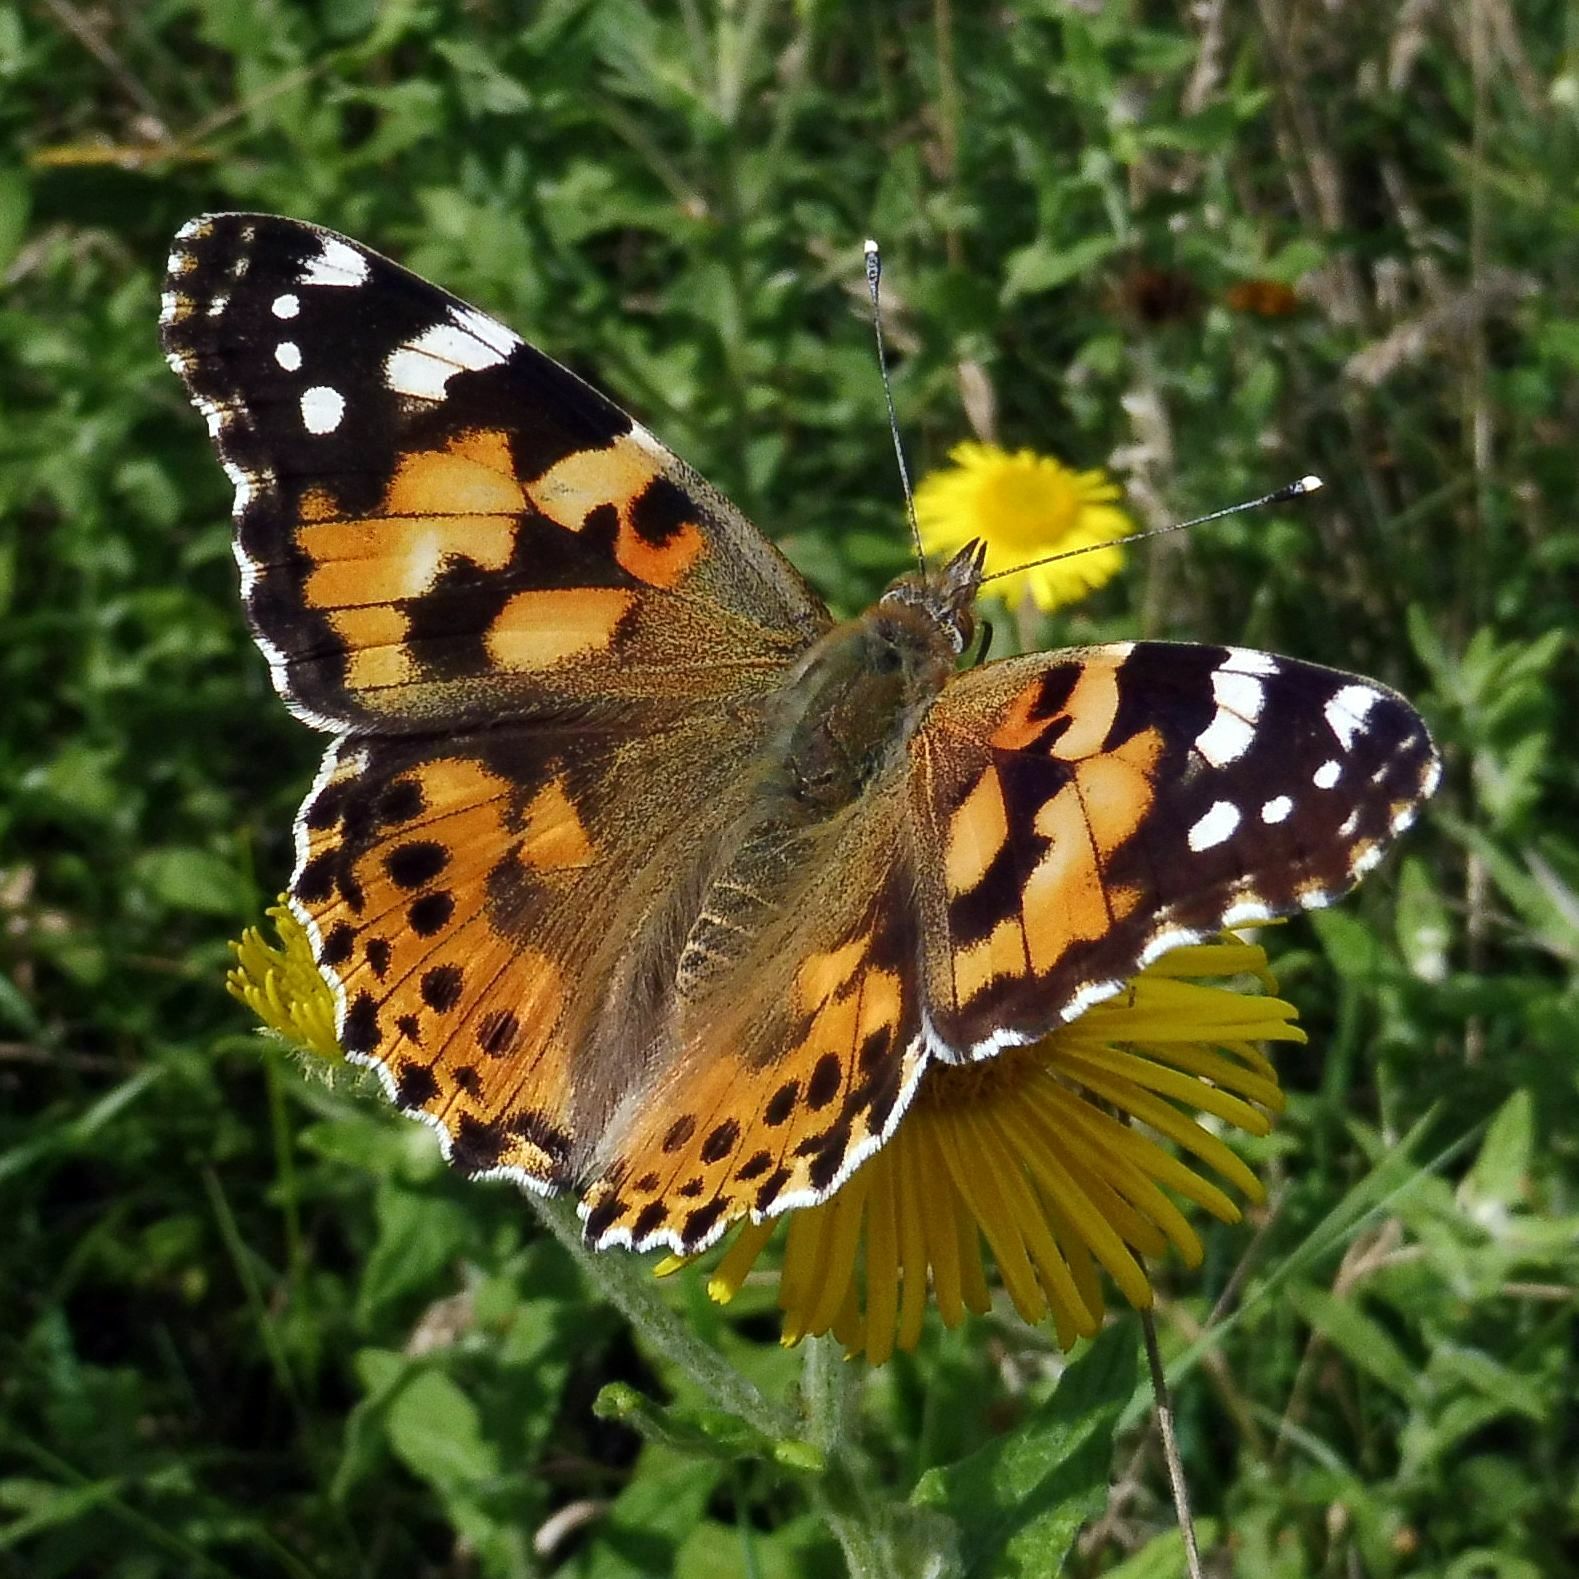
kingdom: Animalia
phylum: Arthropoda
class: Insecta
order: Lepidoptera
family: Nymphalidae
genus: Vanessa
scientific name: Vanessa cardui
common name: Painted lady
